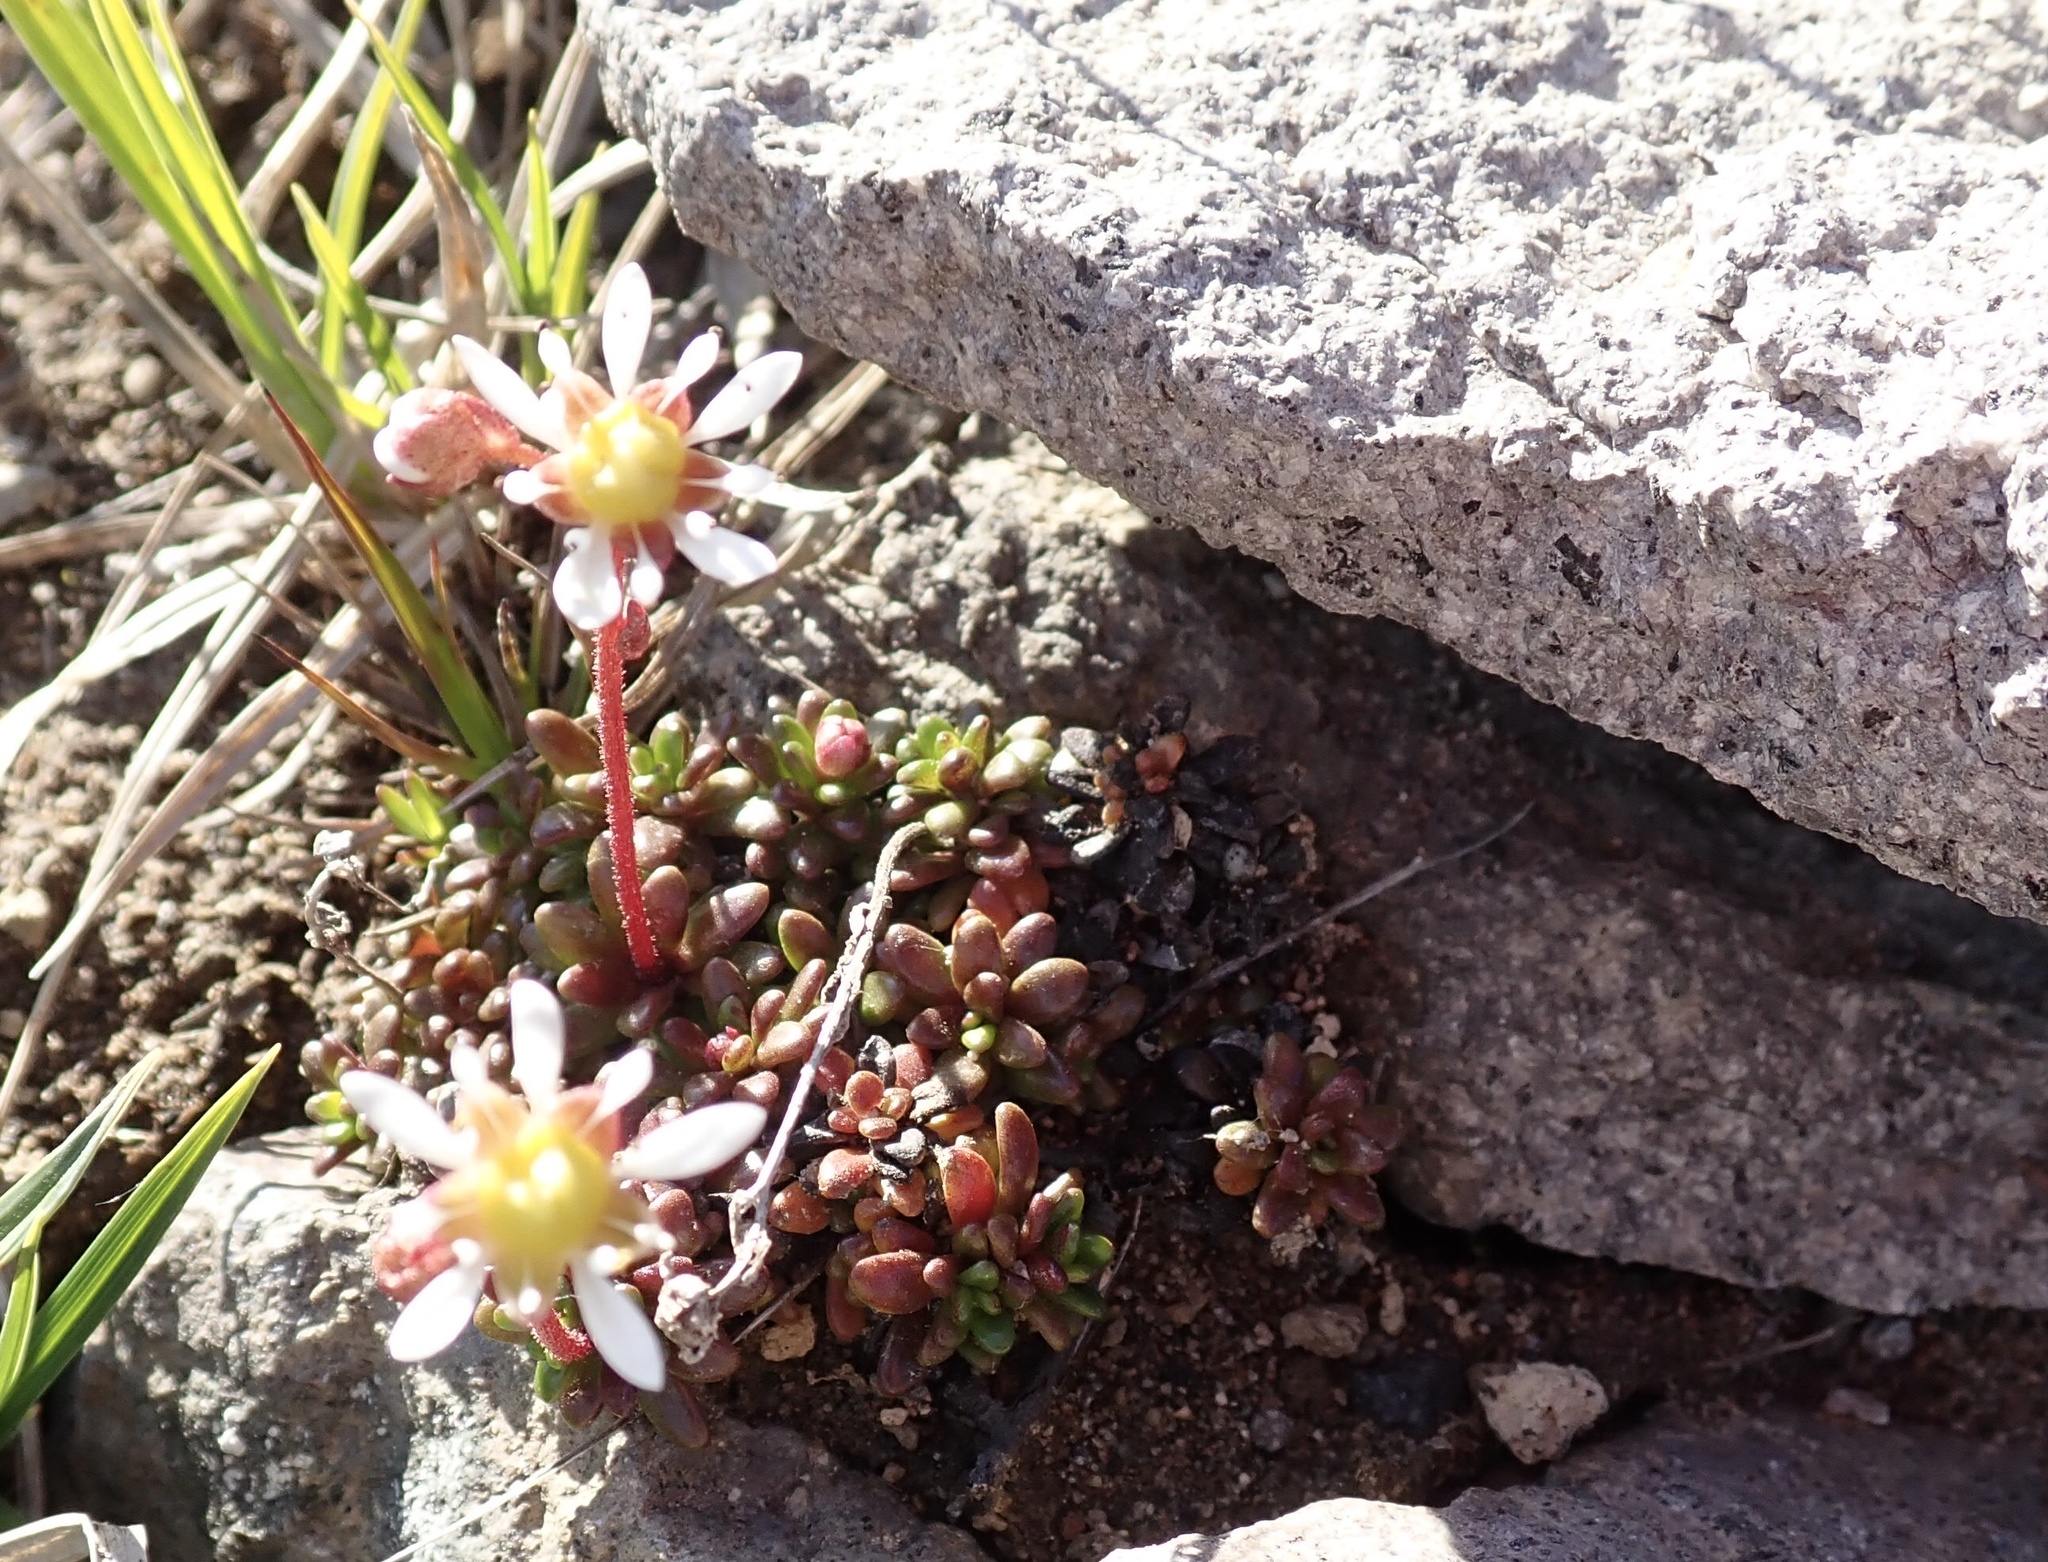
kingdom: Plantae
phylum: Tracheophyta
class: Magnoliopsida
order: Saxifragales
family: Saxifragaceae
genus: Micranthes
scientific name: Micranthes tolmiei
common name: Tolmie's saxifrage
